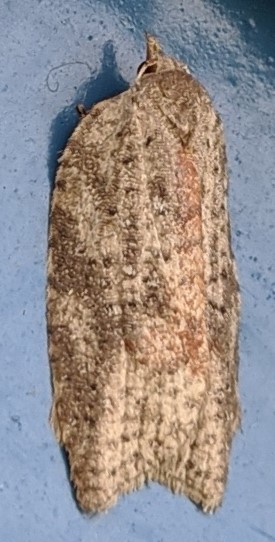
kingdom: Animalia
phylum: Arthropoda
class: Insecta
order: Lepidoptera
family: Tortricidae
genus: Amorbia
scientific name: Amorbia humerosana
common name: White-lined leafroller moth
